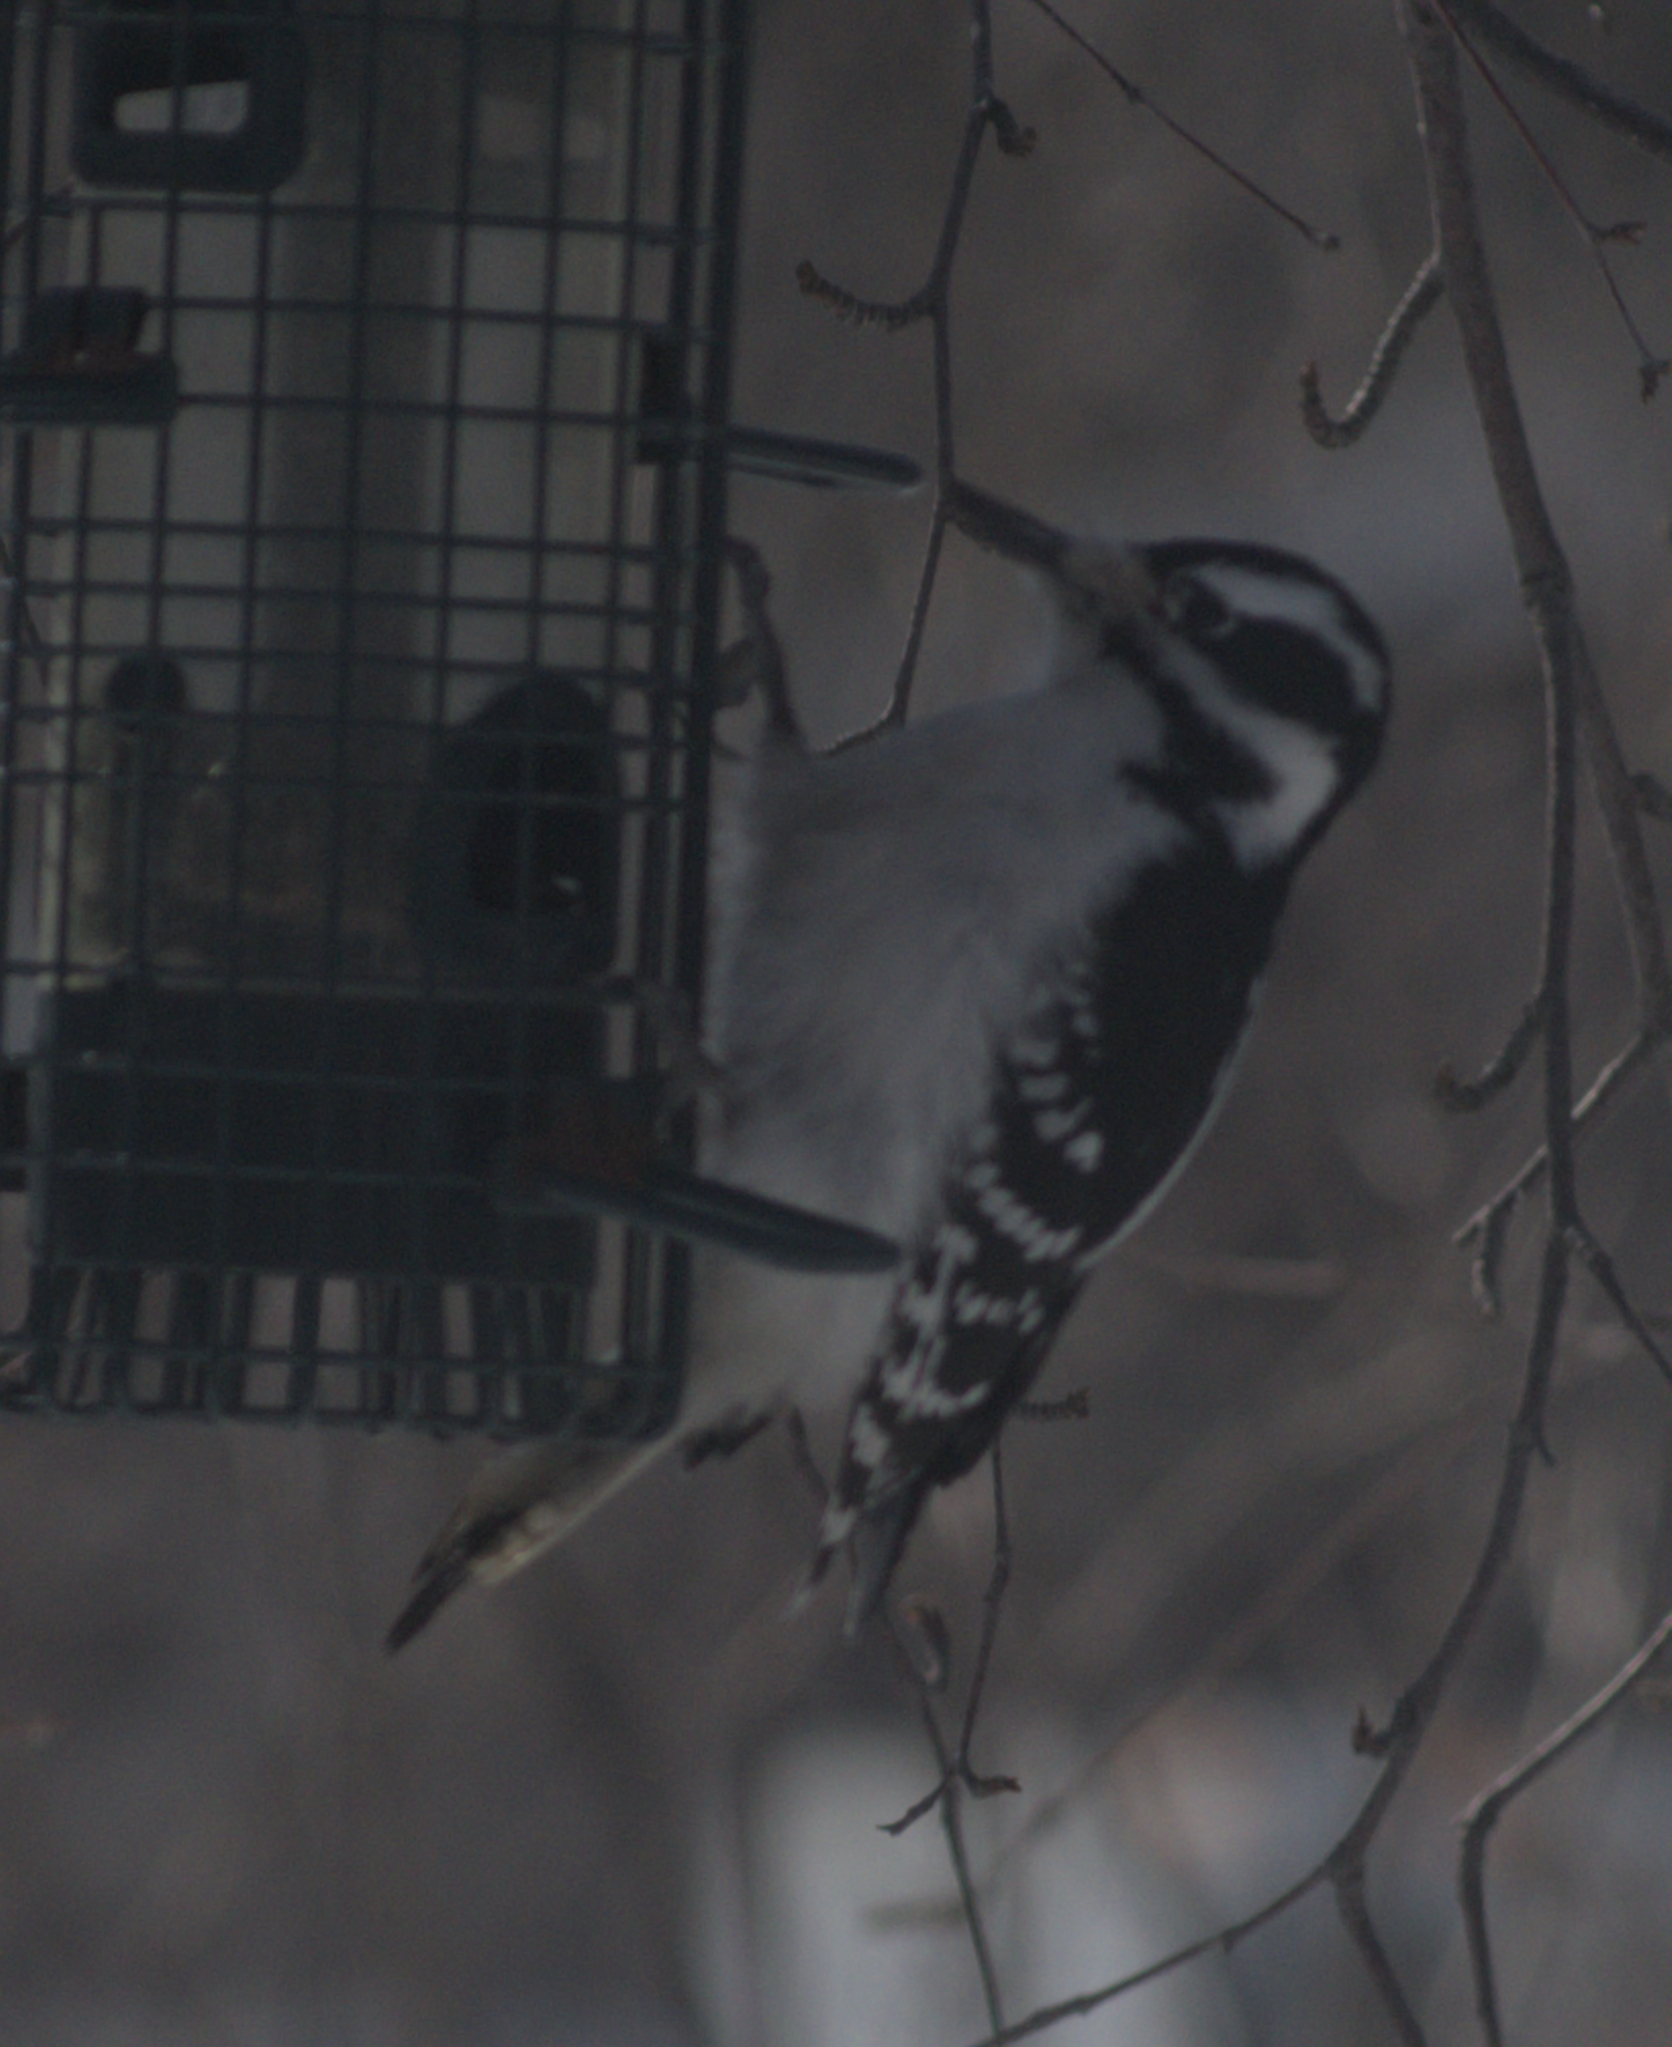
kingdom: Animalia
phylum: Chordata
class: Aves
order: Piciformes
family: Picidae
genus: Leuconotopicus
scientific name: Leuconotopicus villosus
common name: Hairy woodpecker
